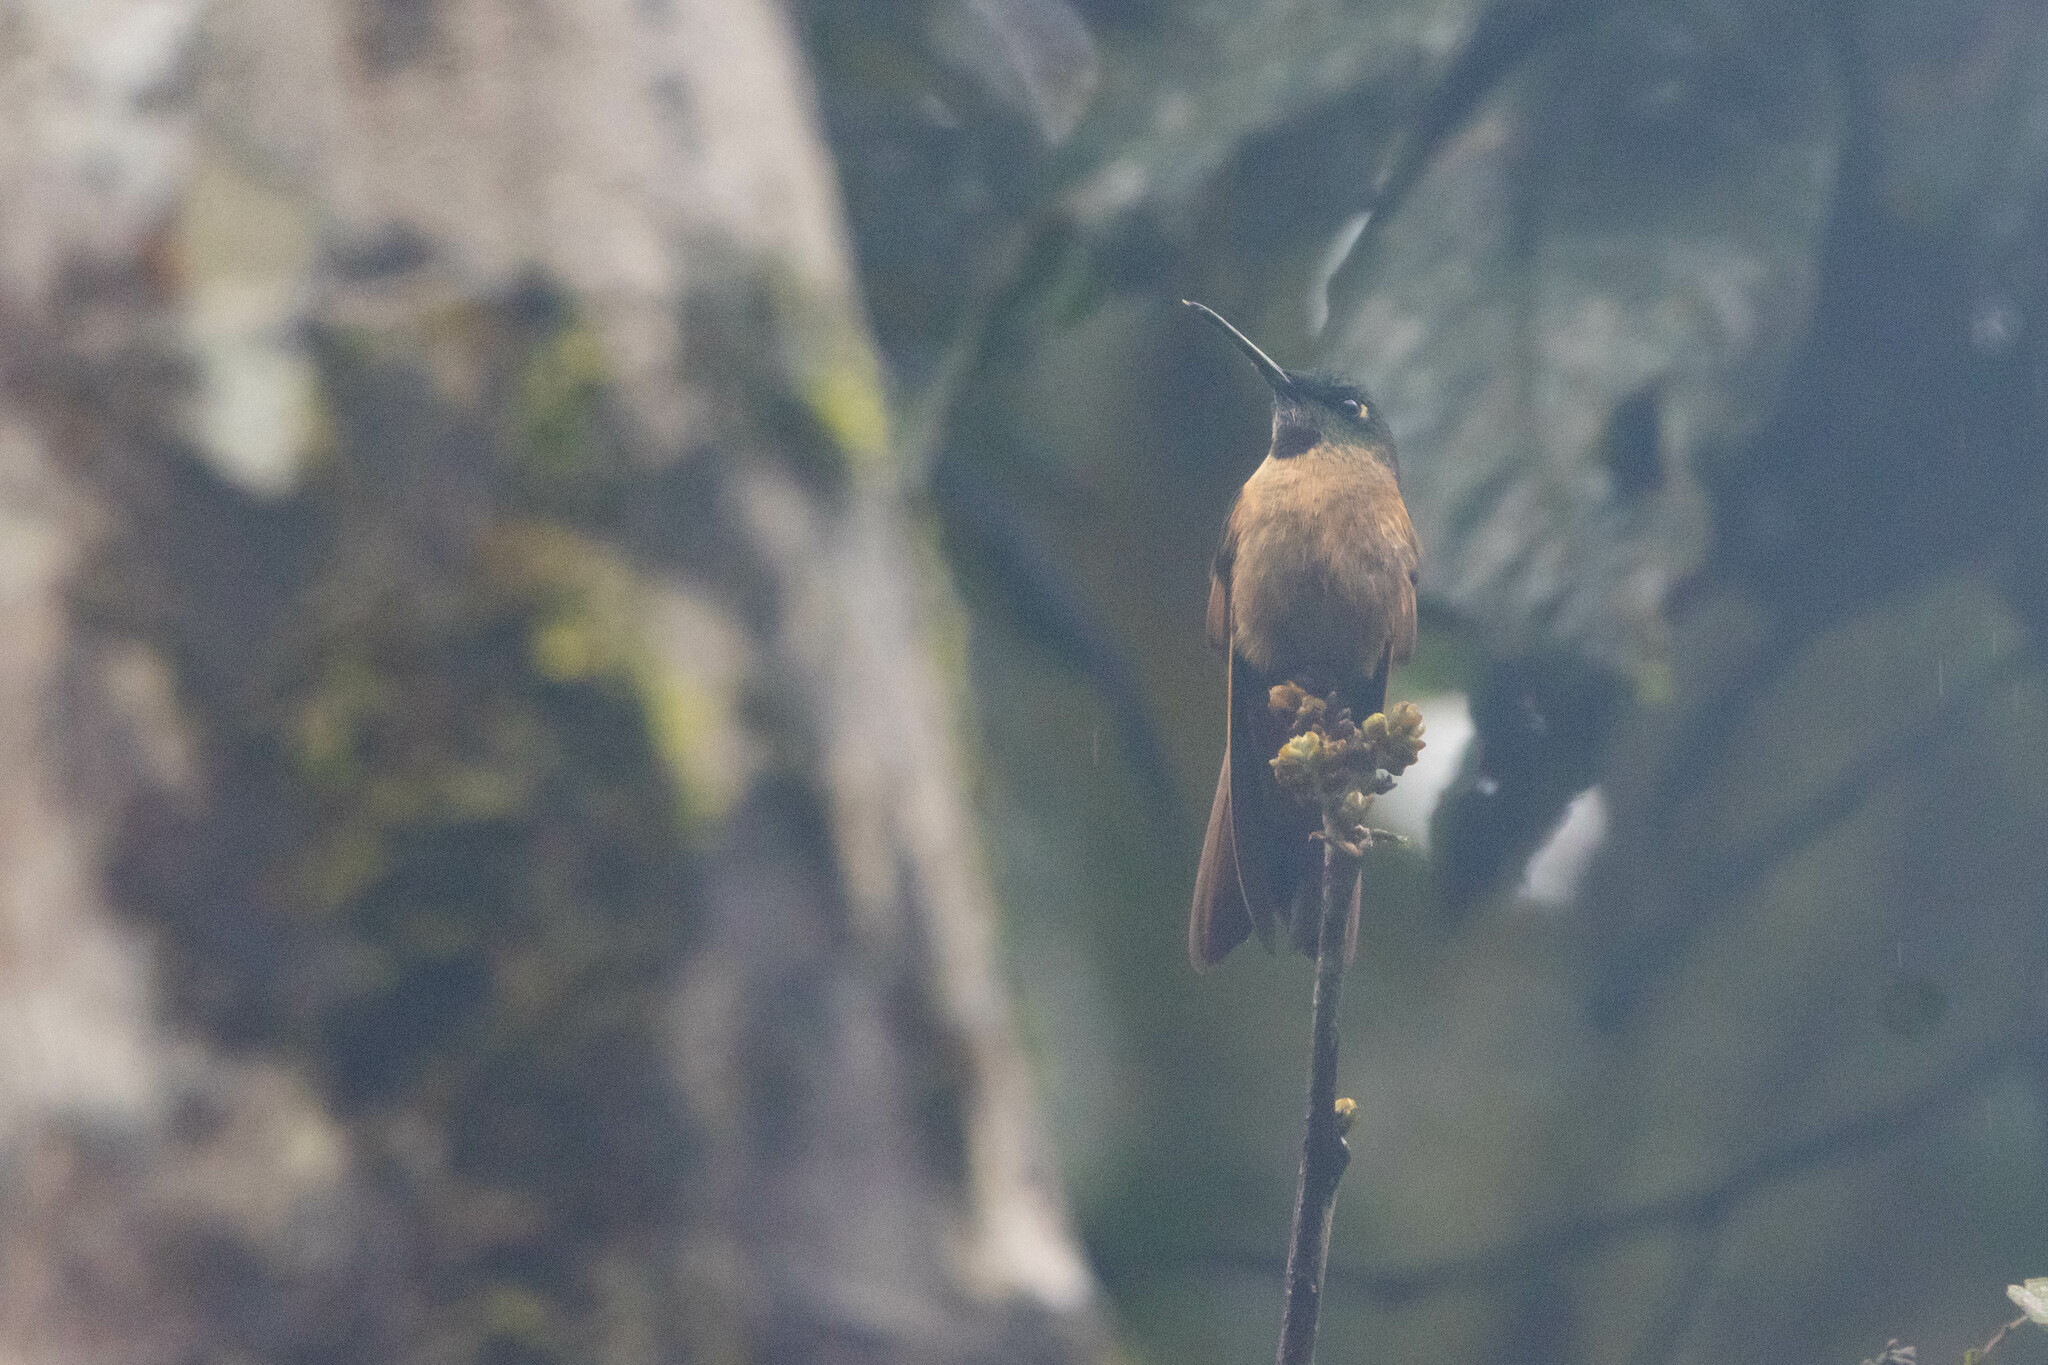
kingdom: Animalia
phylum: Chordata
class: Aves
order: Apodiformes
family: Trochilidae
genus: Heliodoxa
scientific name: Heliodoxa rubinoides
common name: Fawn-breasted brilliant
